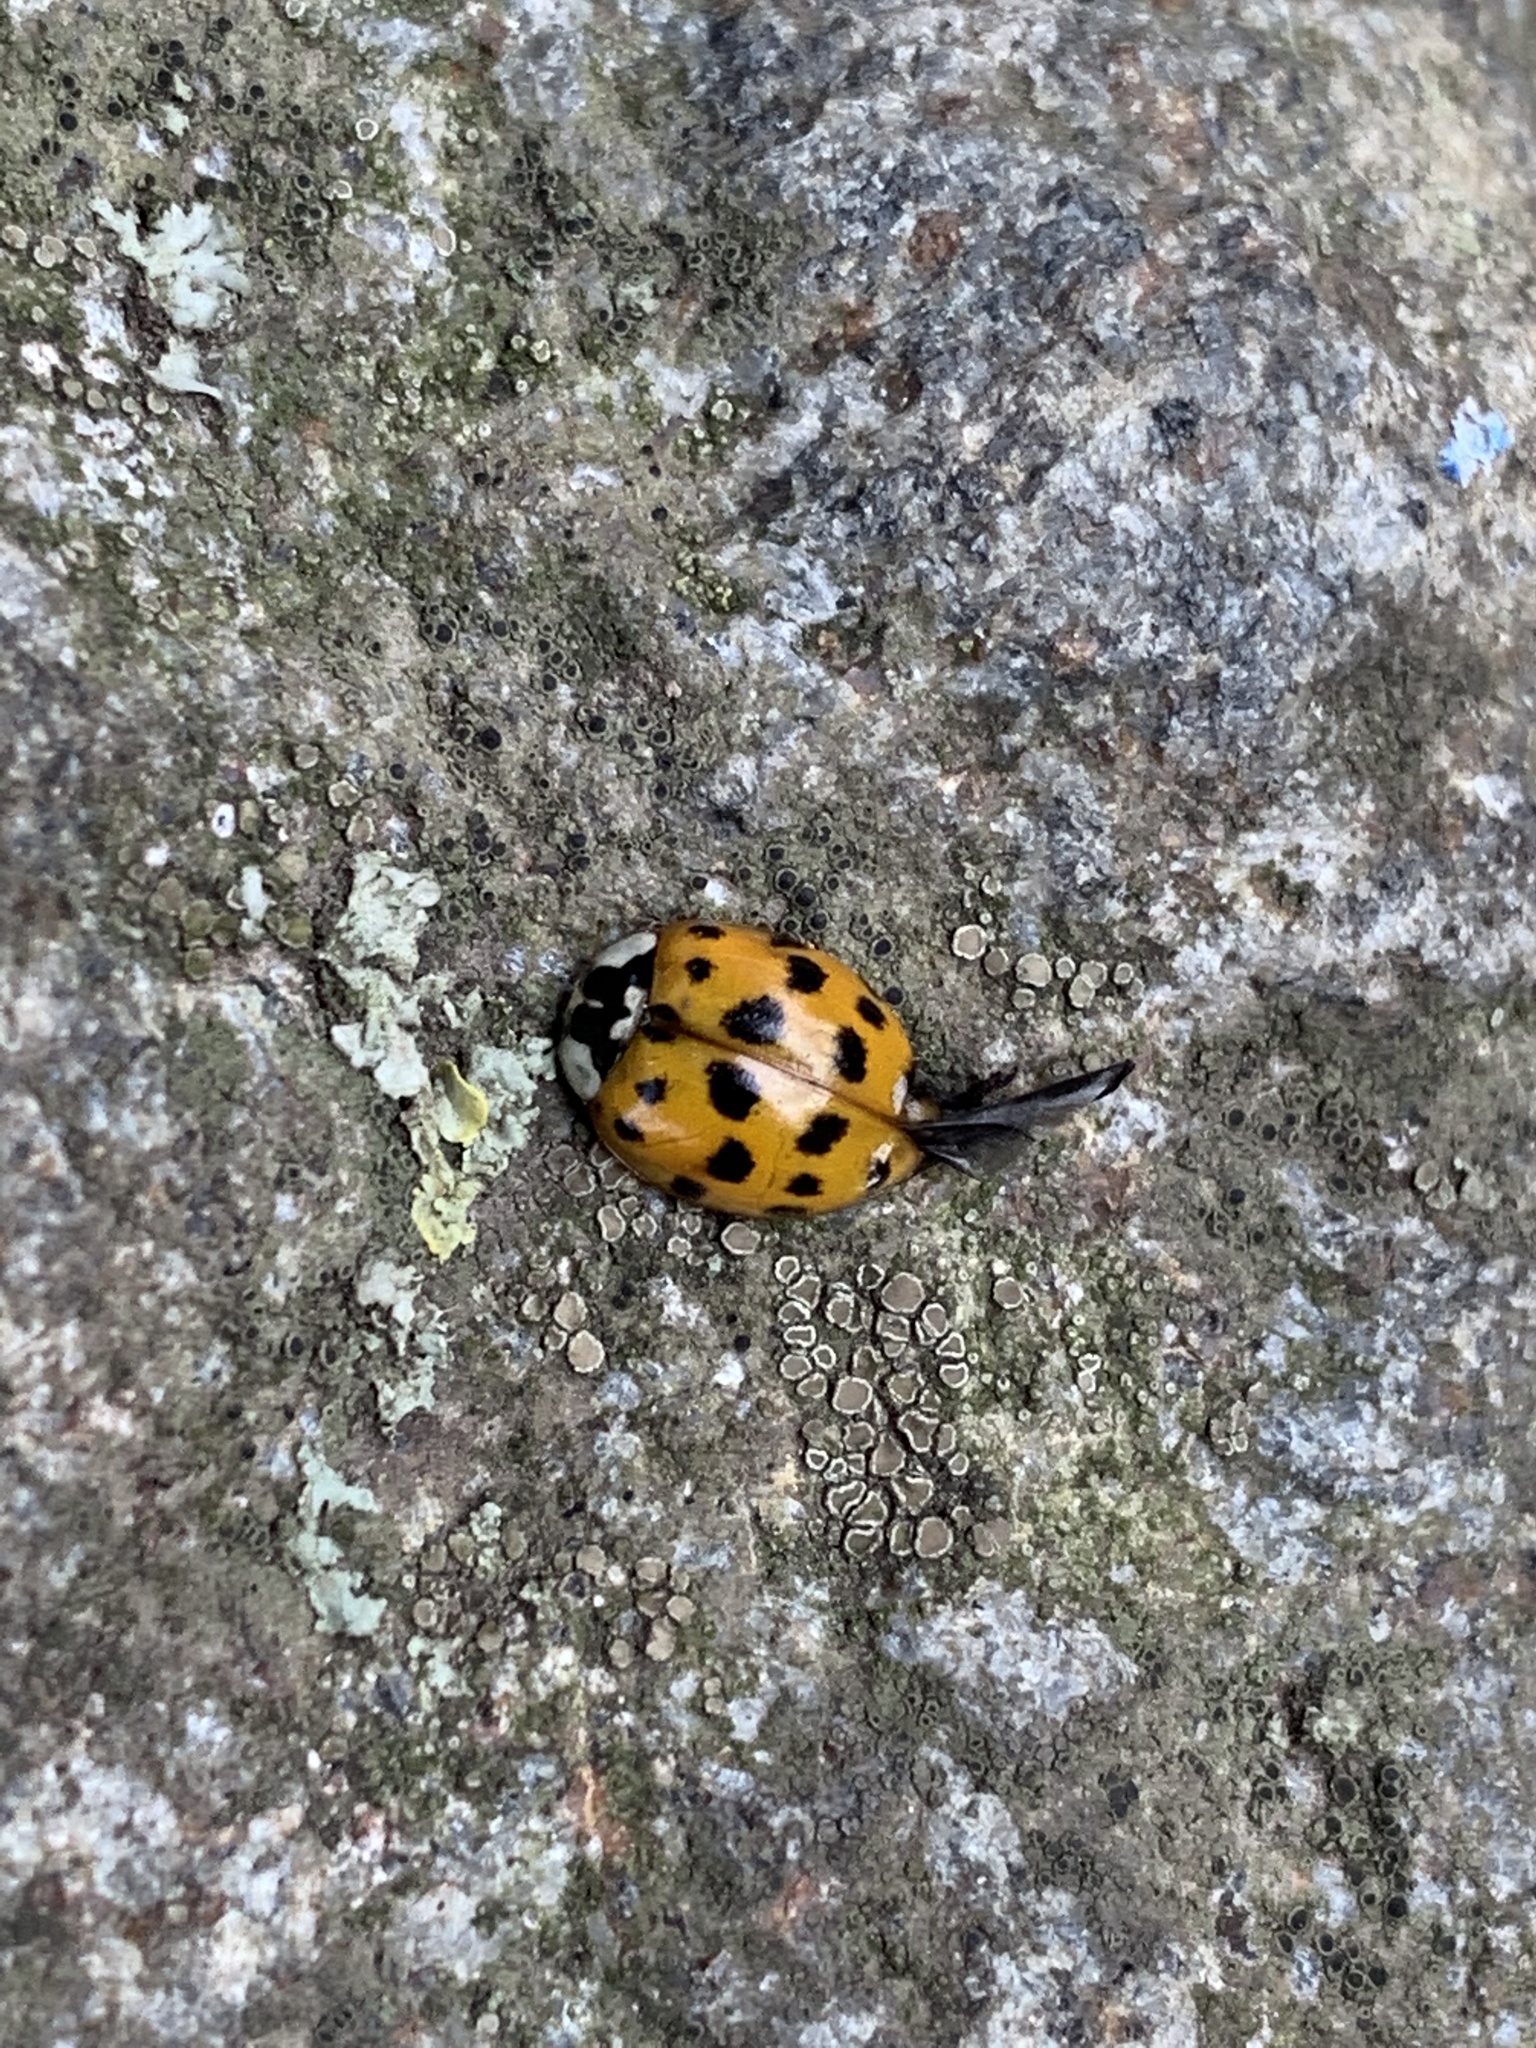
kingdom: Animalia
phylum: Arthropoda
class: Insecta
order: Coleoptera
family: Coccinellidae
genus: Harmonia
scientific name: Harmonia axyridis
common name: Harlequin ladybird
